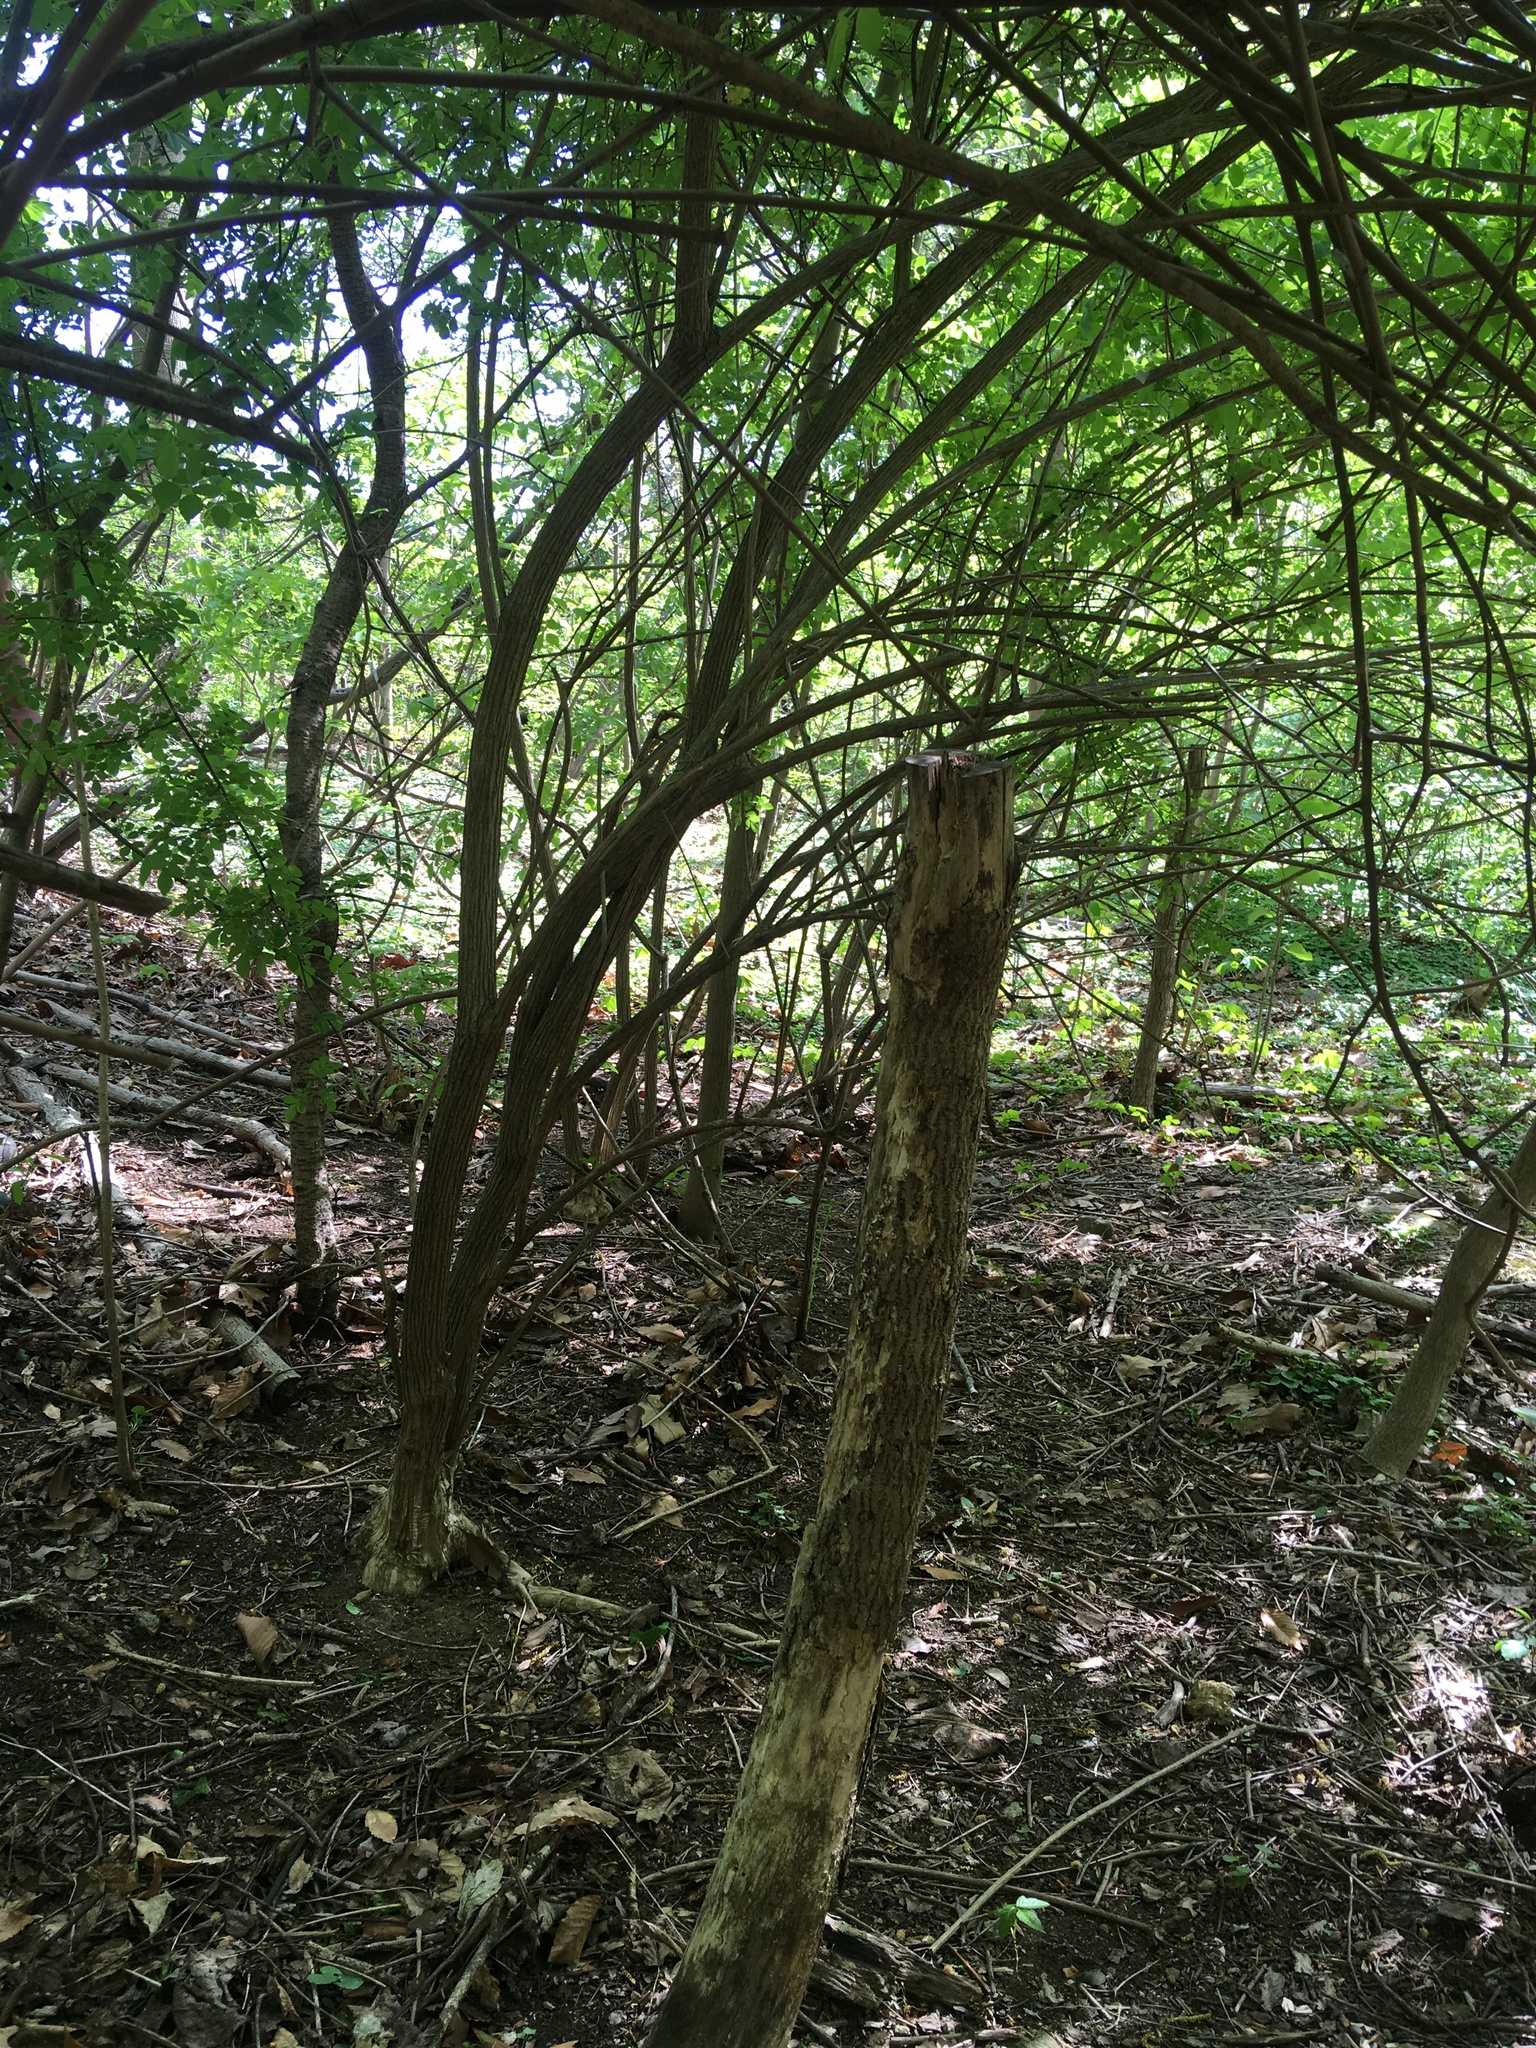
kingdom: Plantae
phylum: Tracheophyta
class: Magnoliopsida
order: Dipsacales
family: Caprifoliaceae
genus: Lonicera
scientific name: Lonicera maackii
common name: Amur honeysuckle
